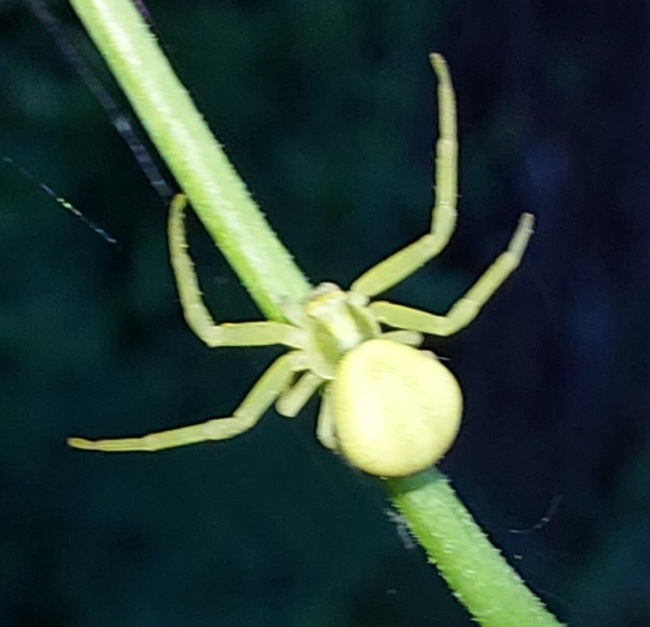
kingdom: Animalia
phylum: Arthropoda
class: Arachnida
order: Araneae
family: Thomisidae
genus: Misumena
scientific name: Misumena vatia
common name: Goldenrod crab spider
